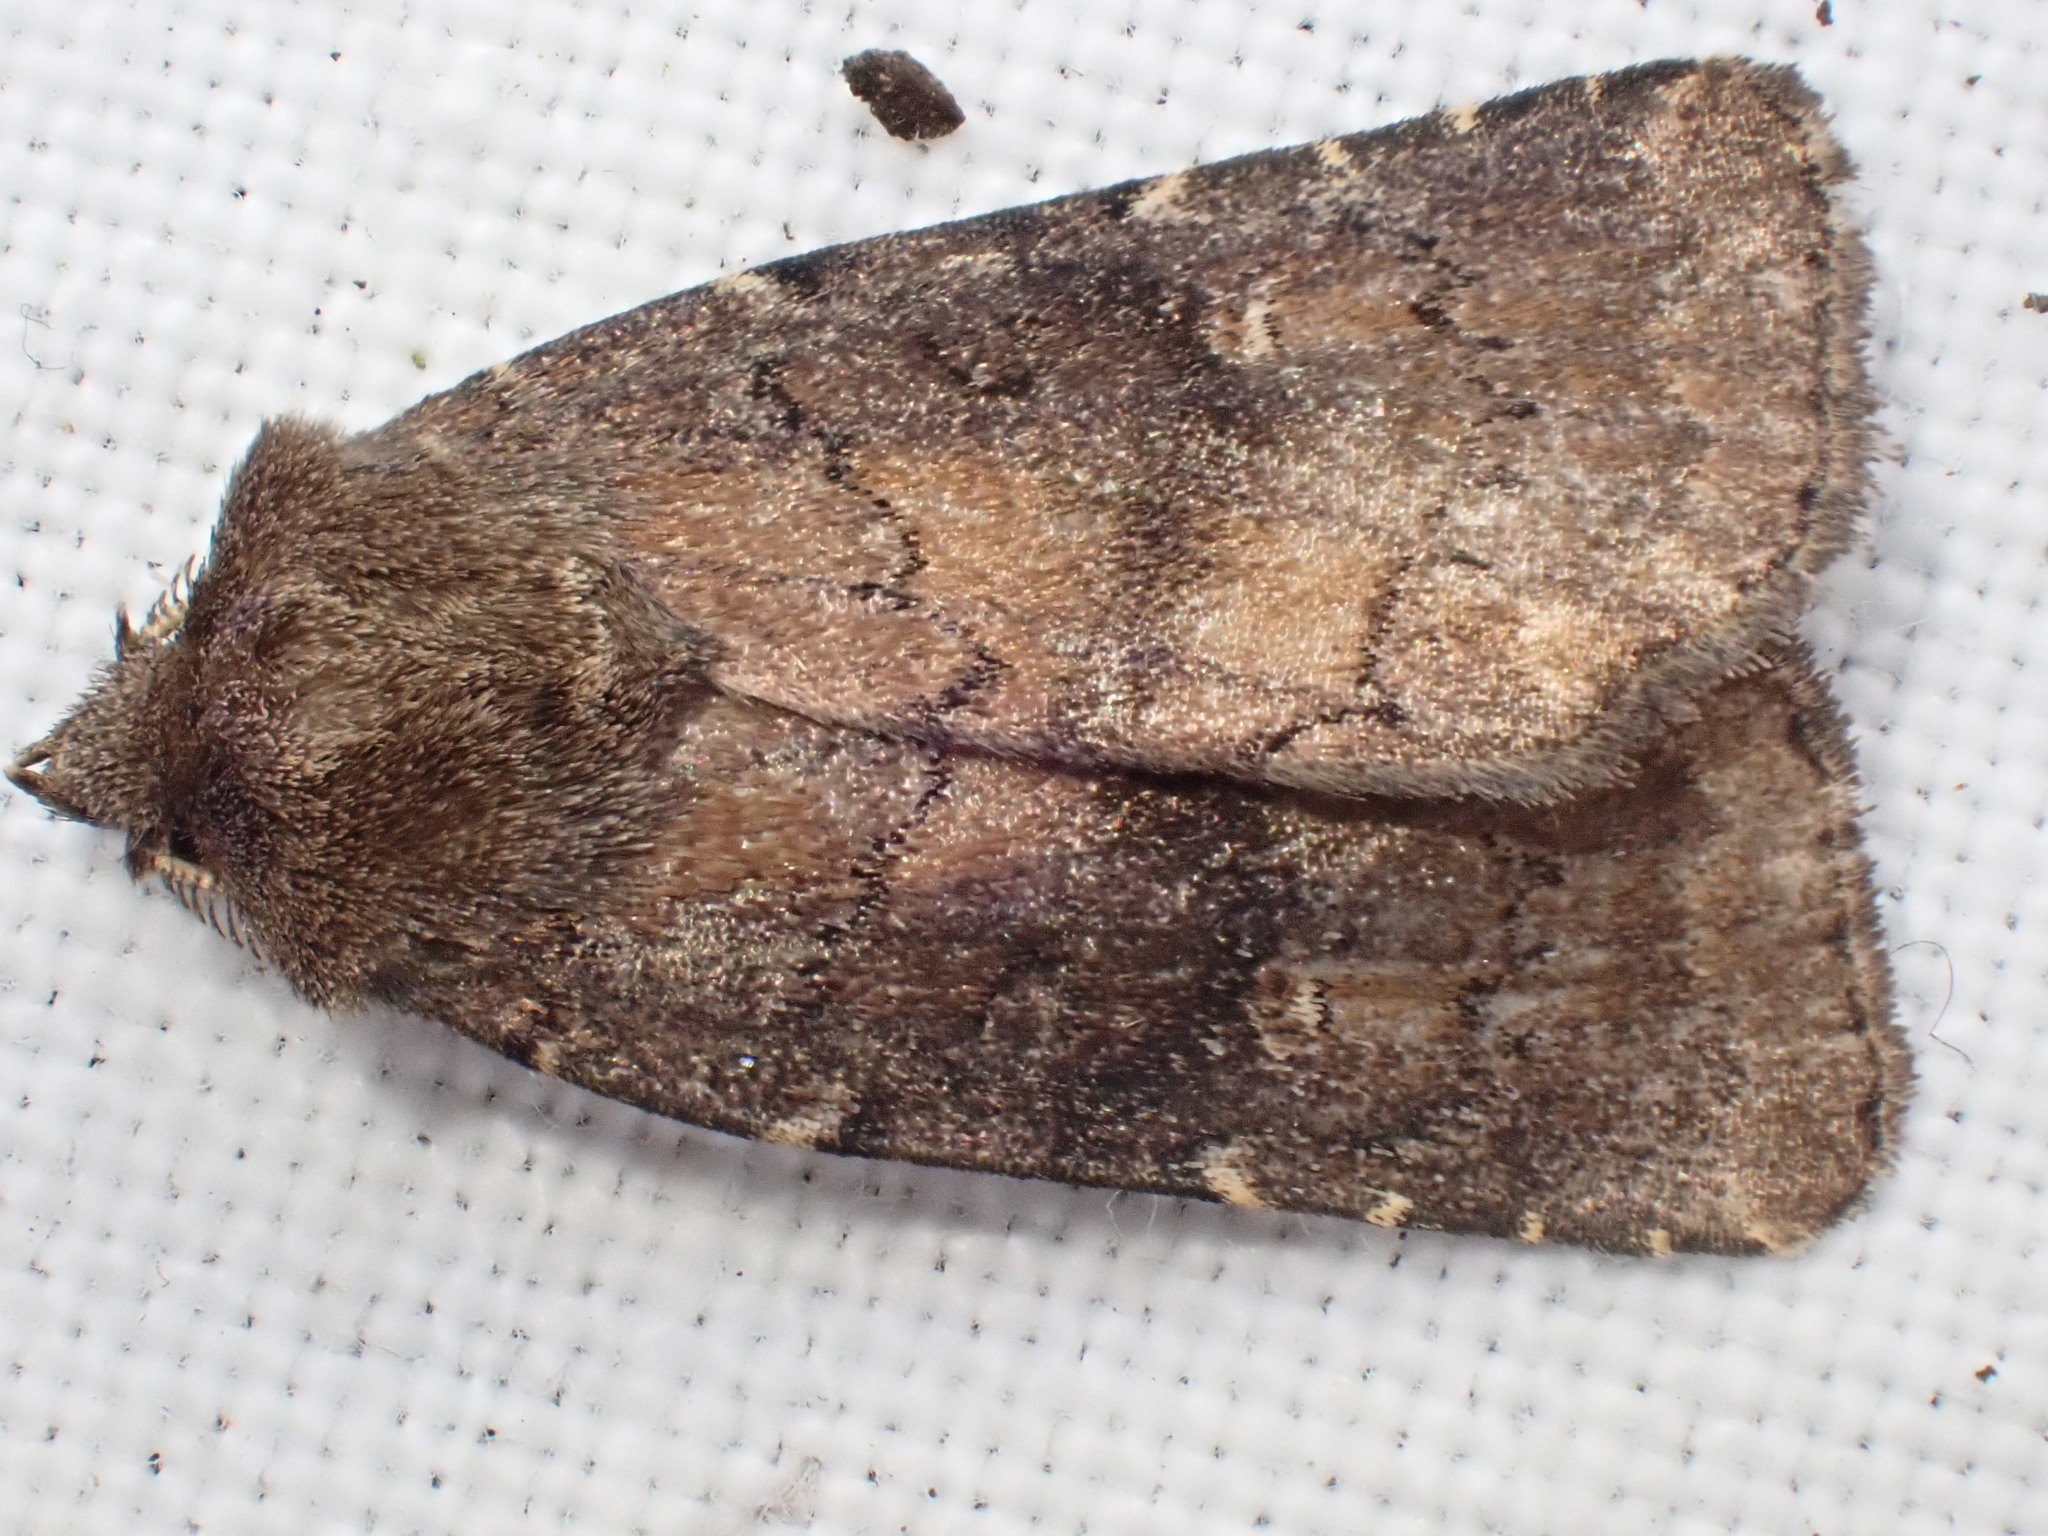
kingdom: Animalia
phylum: Arthropoda
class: Insecta
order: Lepidoptera
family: Noctuidae
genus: Charanyca
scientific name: Charanyca ferruginea
